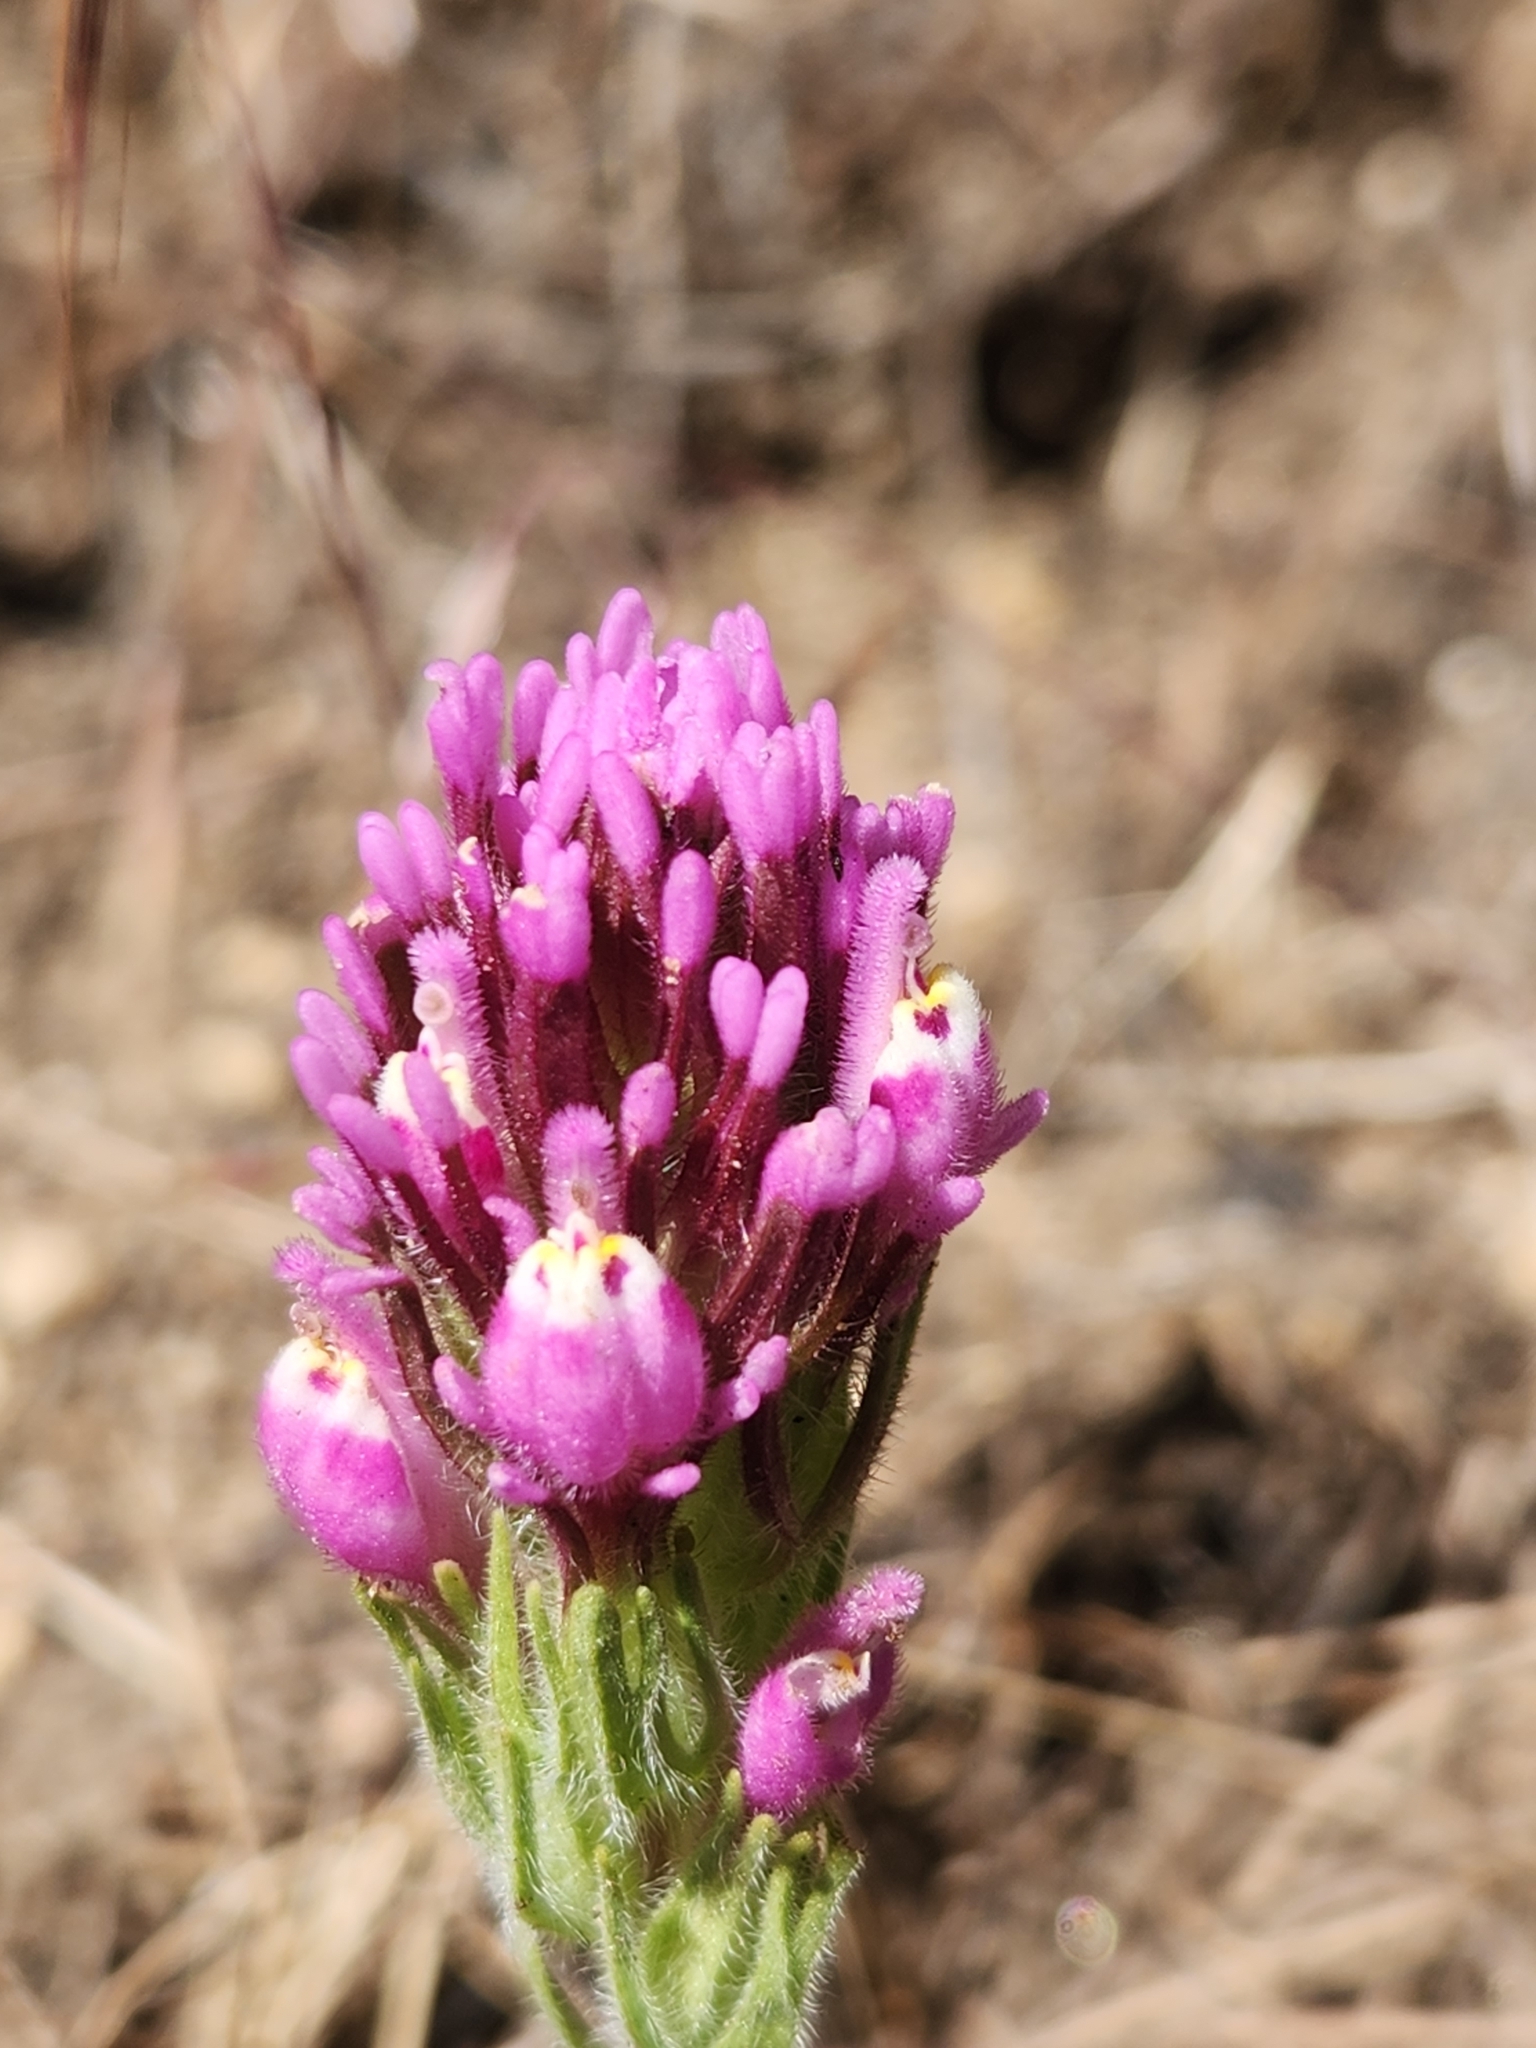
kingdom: Plantae
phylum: Tracheophyta
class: Magnoliopsida
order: Lamiales
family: Orobanchaceae
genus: Castilleja
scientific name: Castilleja exserta
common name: Purple owl-clover
